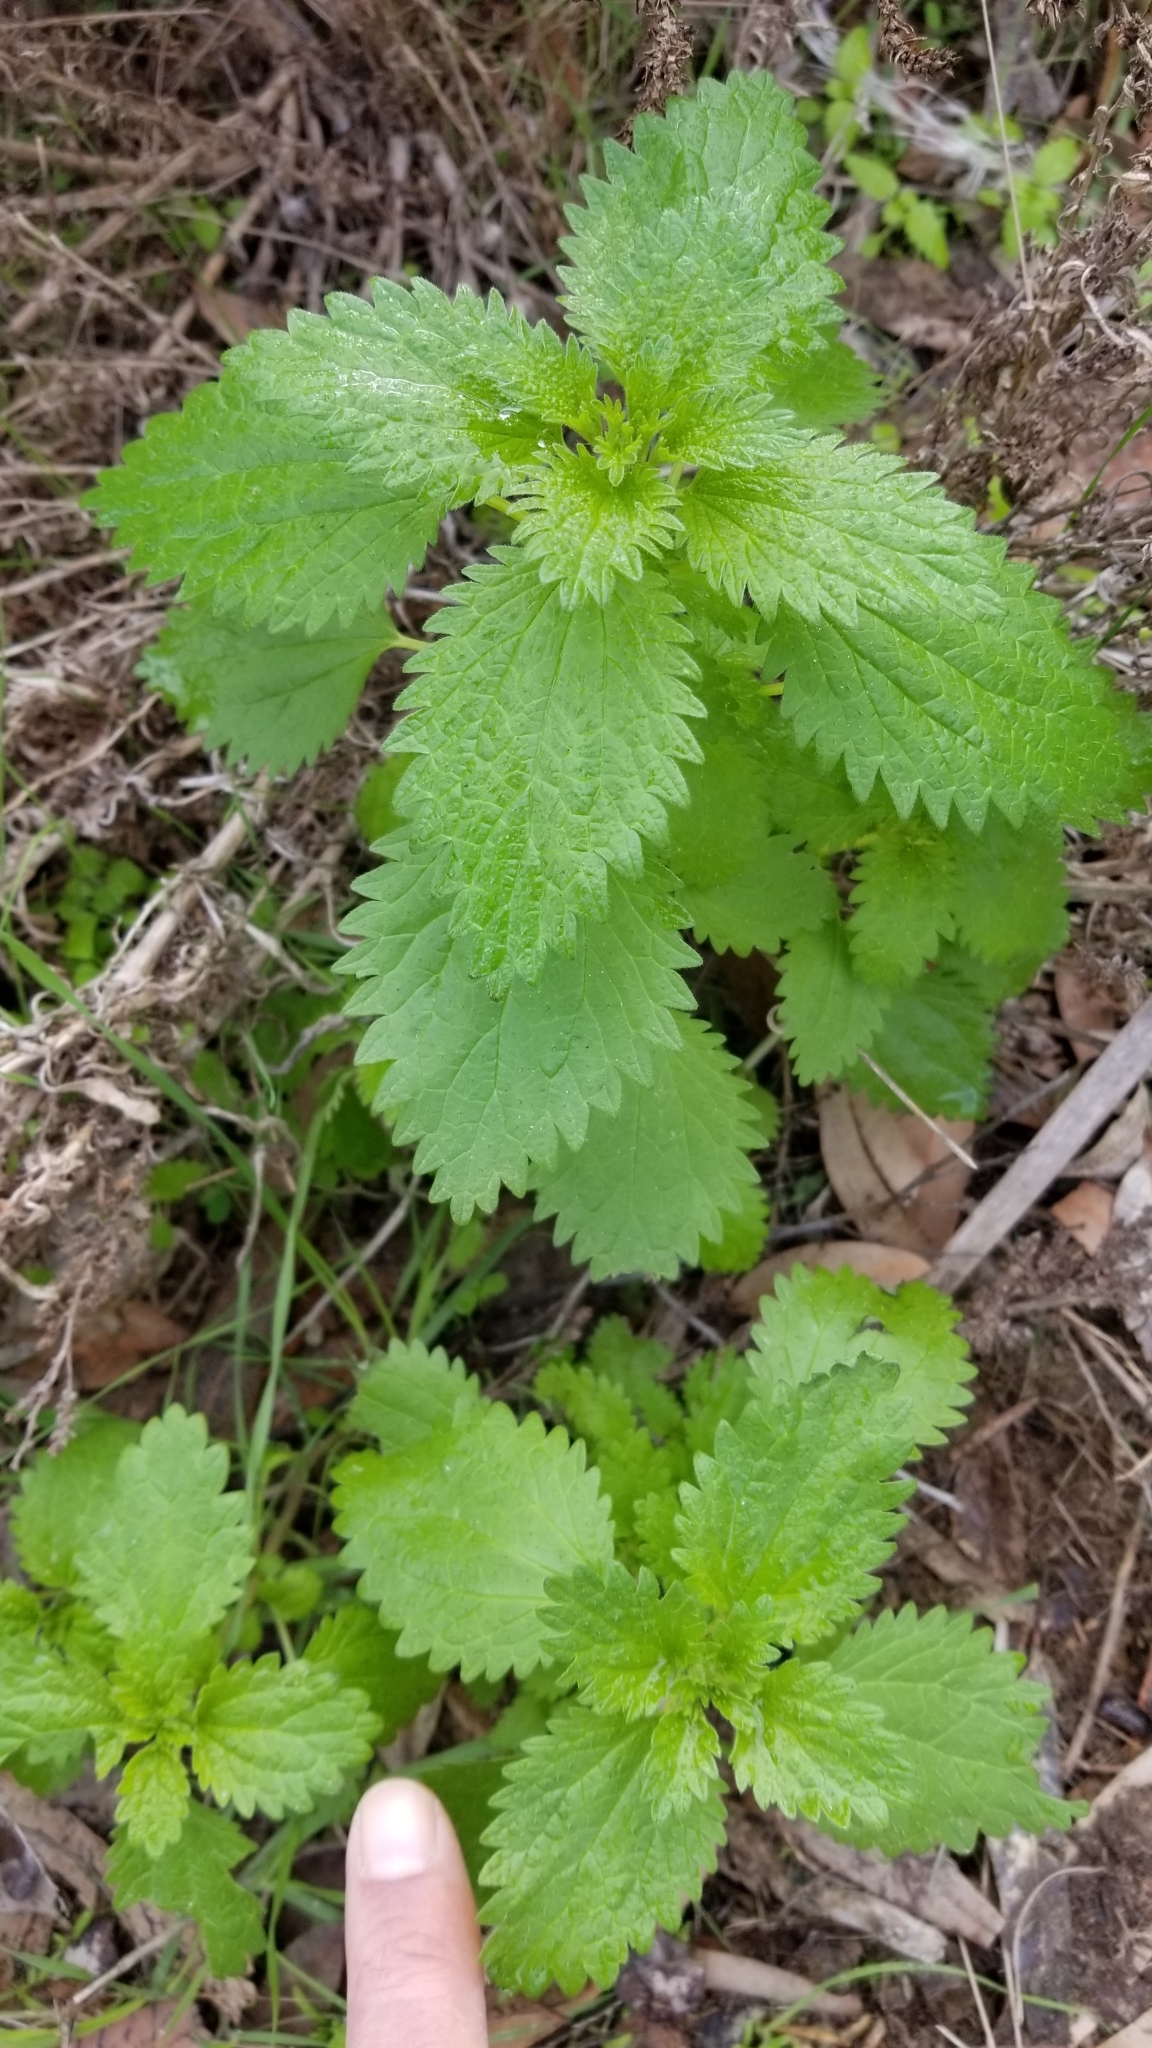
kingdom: Plantae
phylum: Tracheophyta
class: Magnoliopsida
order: Rosales
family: Urticaceae
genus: Urtica
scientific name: Urtica urens
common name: Dwarf nettle
